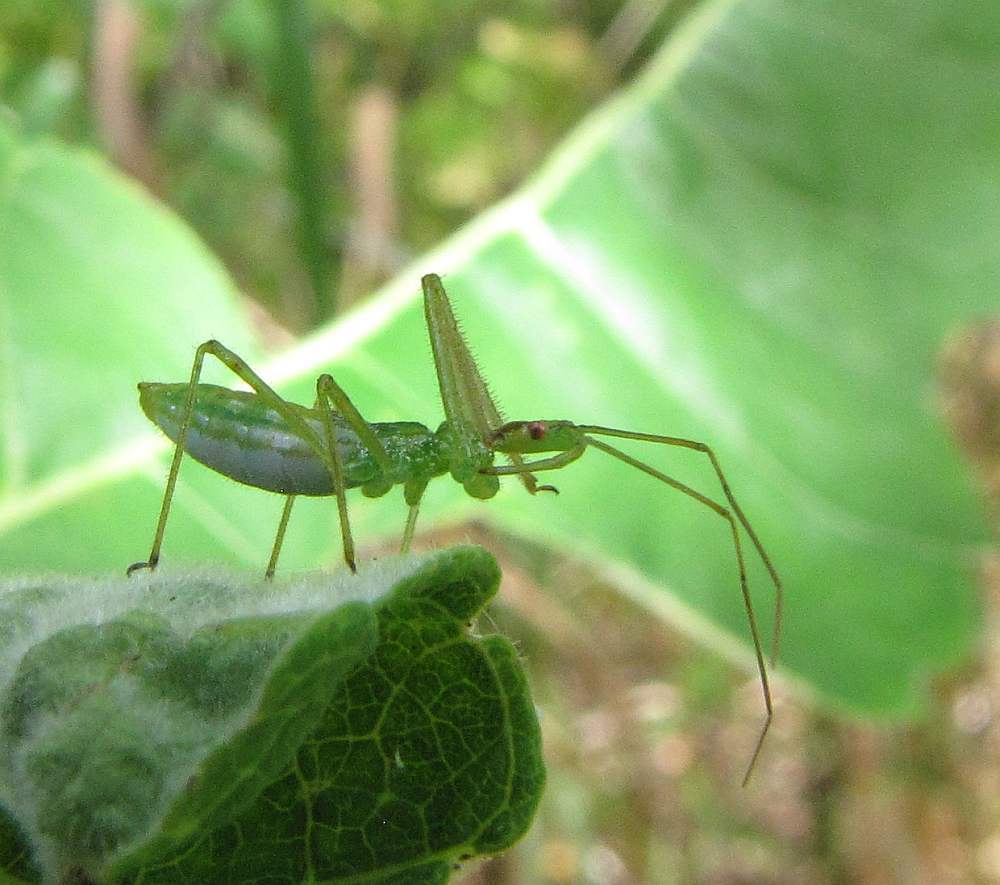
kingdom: Animalia
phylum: Arthropoda
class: Insecta
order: Hemiptera
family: Reduviidae
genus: Zelus
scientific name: Zelus luridus
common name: Pale green assassin bug
